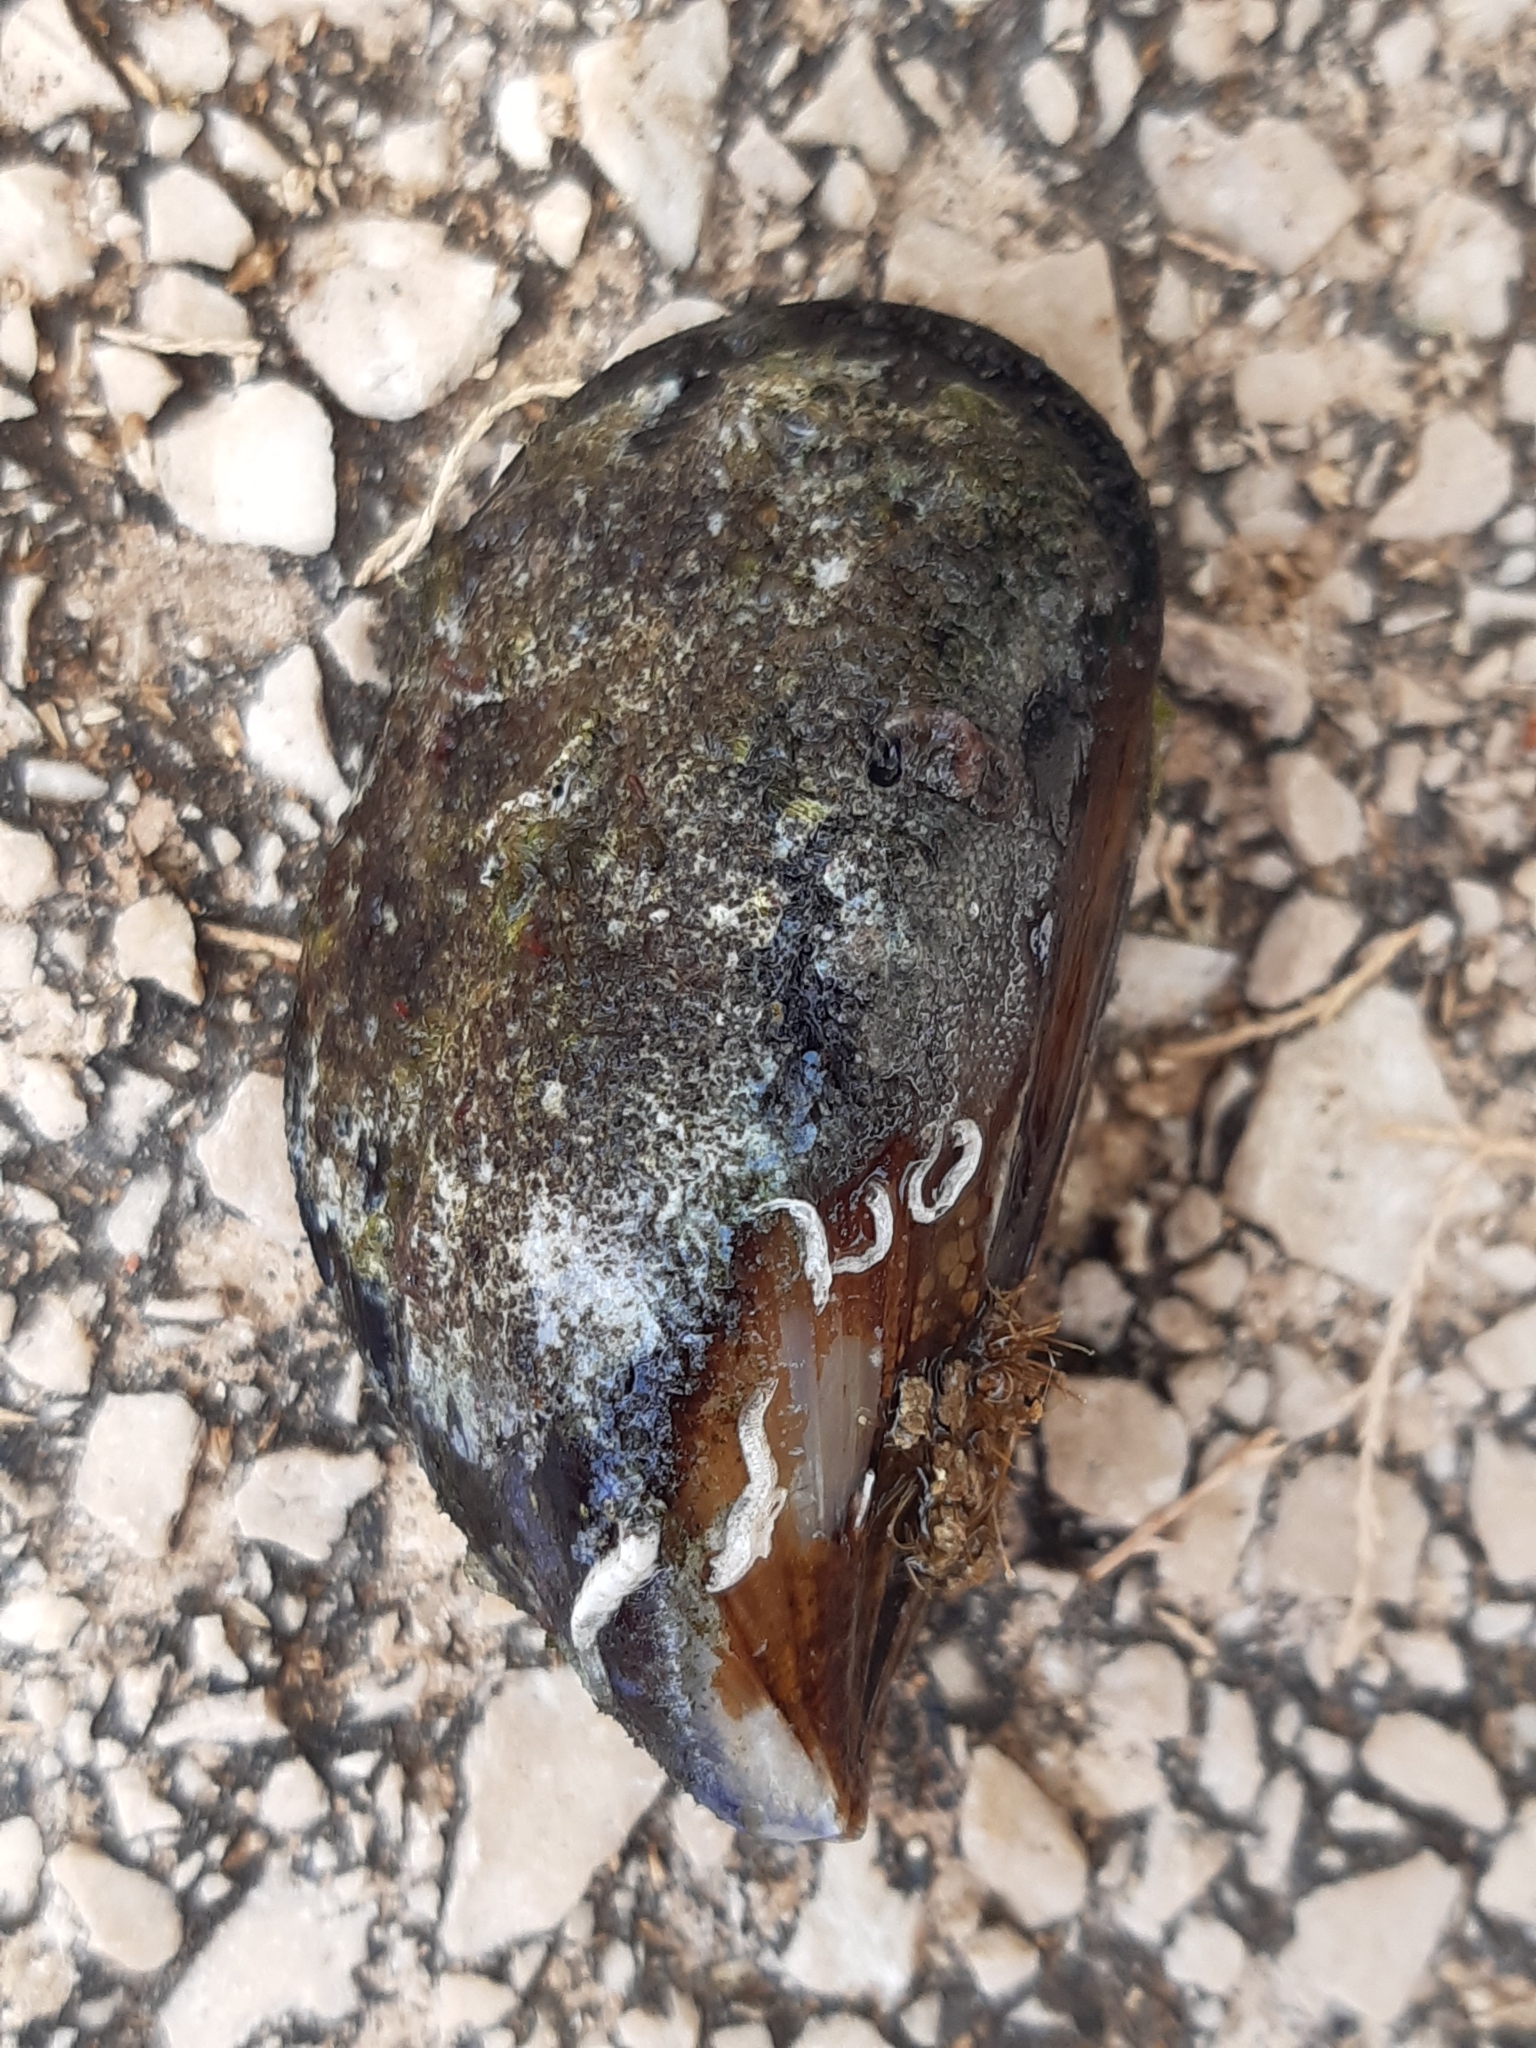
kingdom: Animalia
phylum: Mollusca
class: Bivalvia
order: Mytilida
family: Mytilidae
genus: Mytilus
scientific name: Mytilus galloprovincialis
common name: Mediterranean mussel
